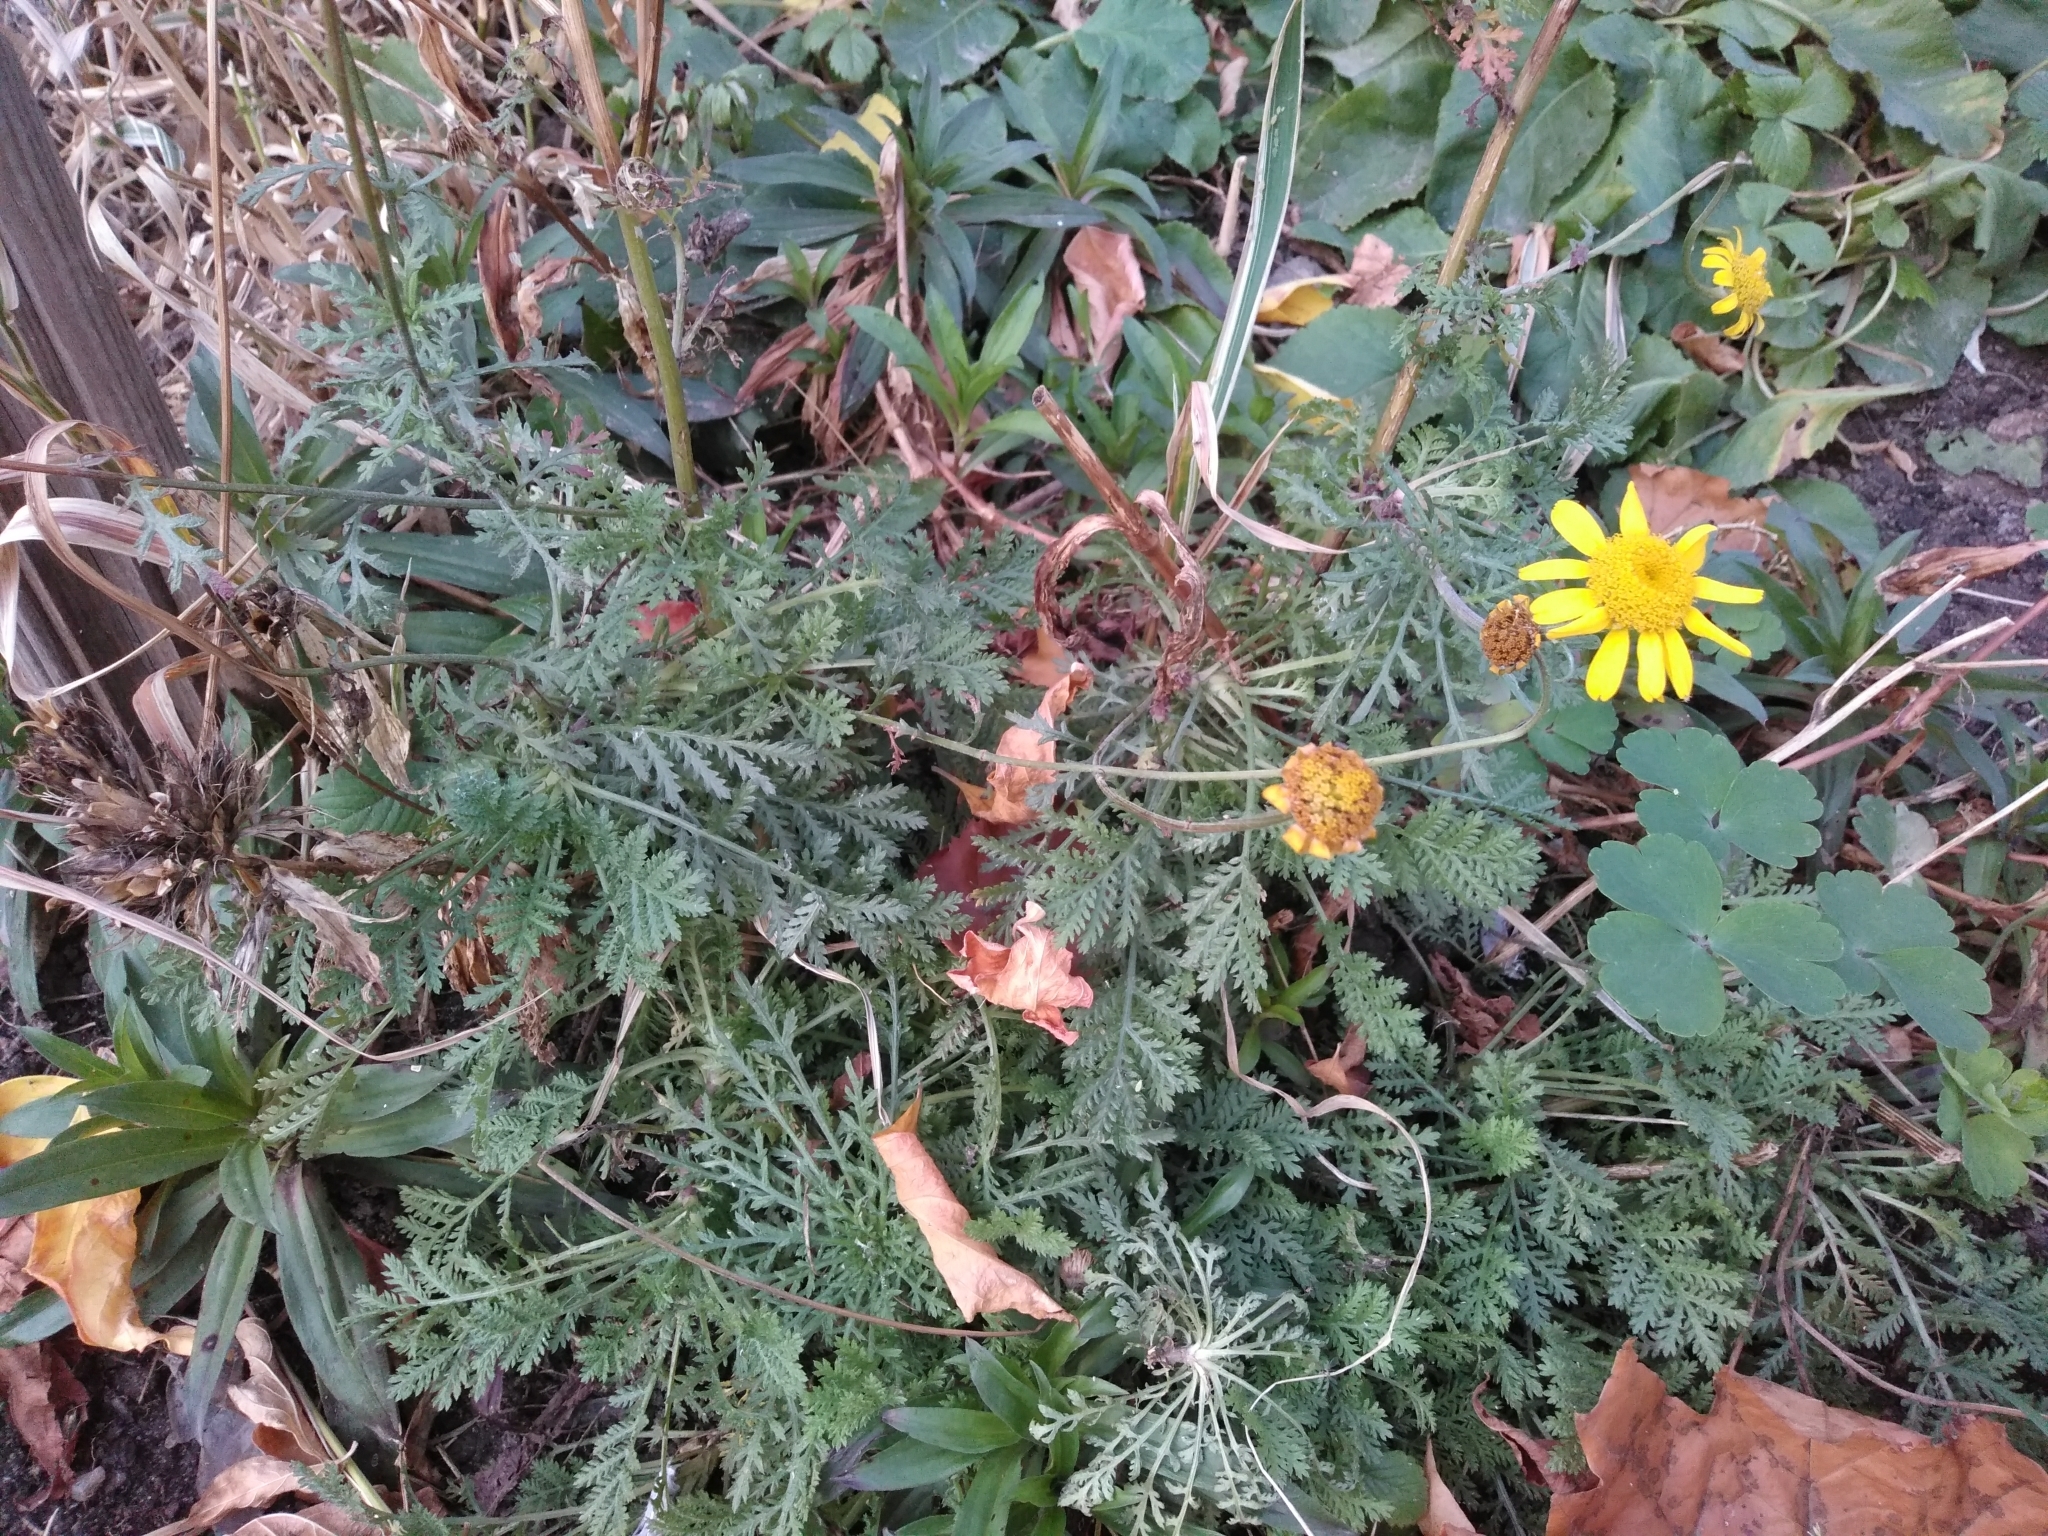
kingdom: Plantae
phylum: Tracheophyta
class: Magnoliopsida
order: Asterales
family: Asteraceae
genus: Cota
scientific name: Cota tinctoria
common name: Golden chamomile
